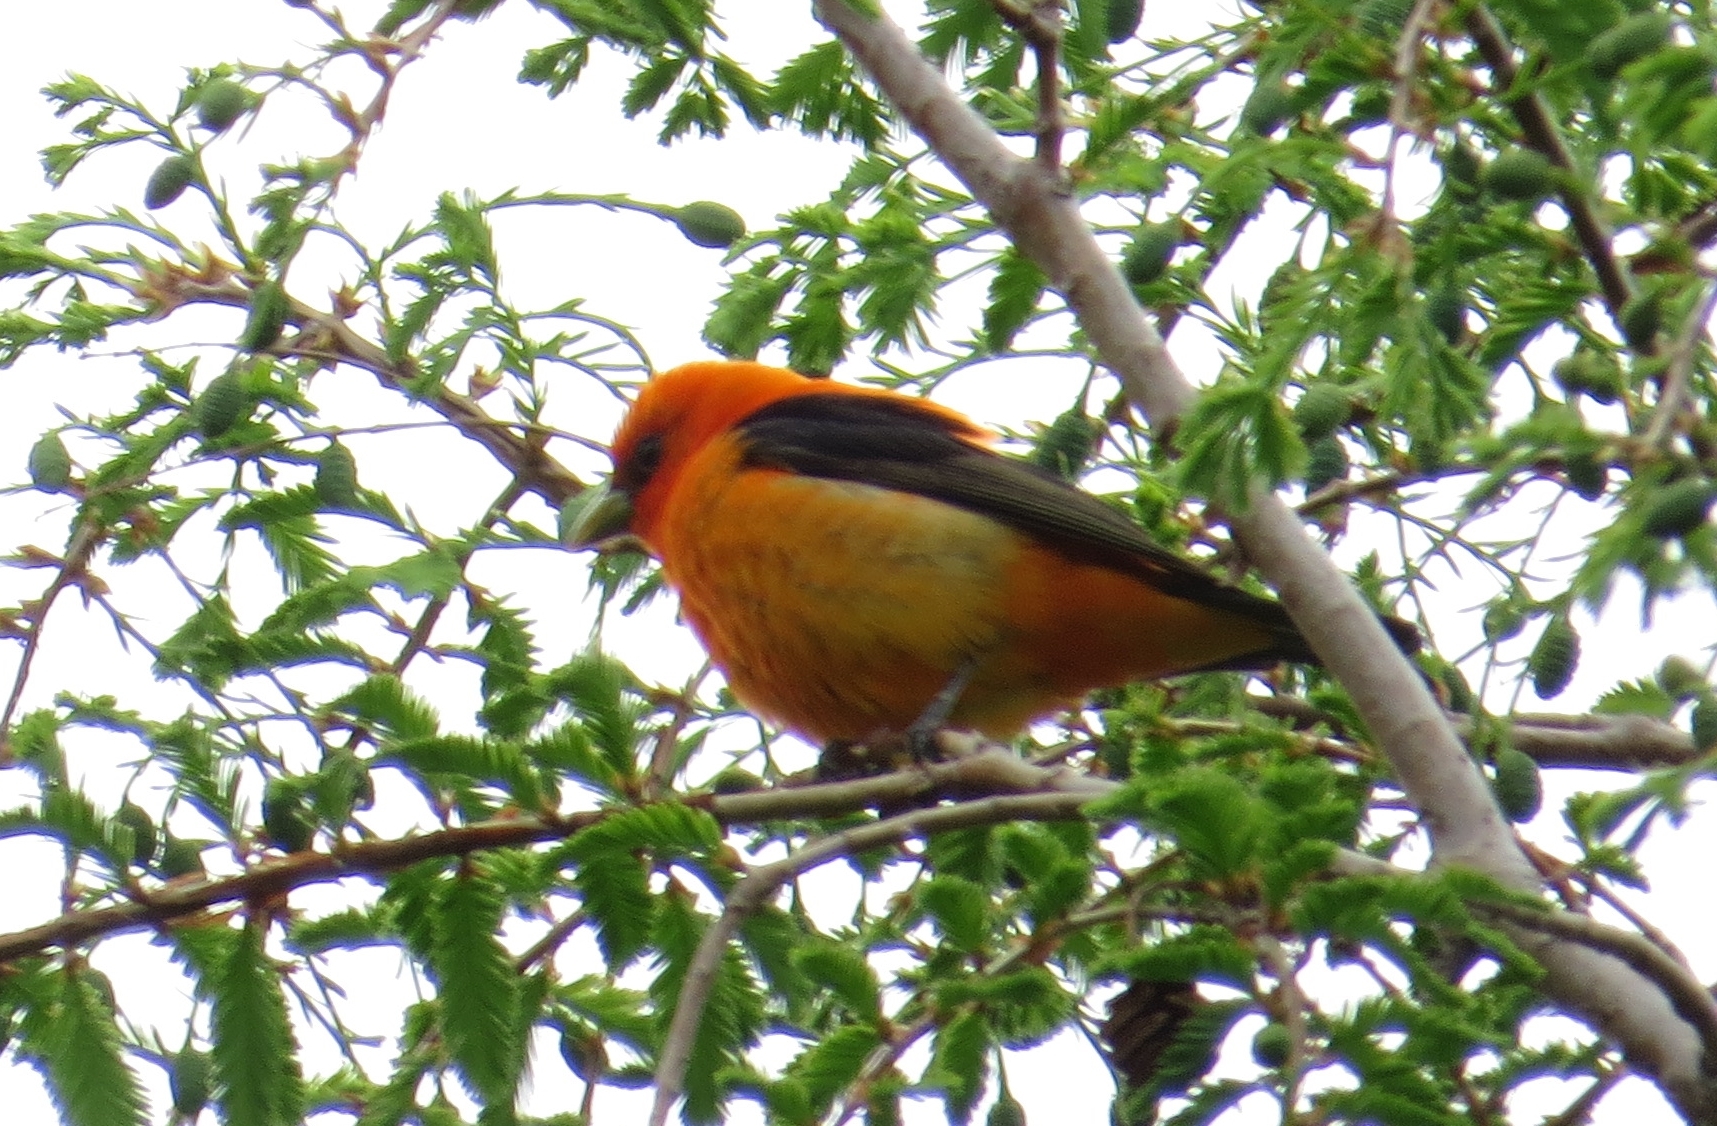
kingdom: Animalia
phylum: Chordata
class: Aves
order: Passeriformes
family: Cardinalidae
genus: Piranga
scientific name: Piranga olivacea
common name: Scarlet tanager
